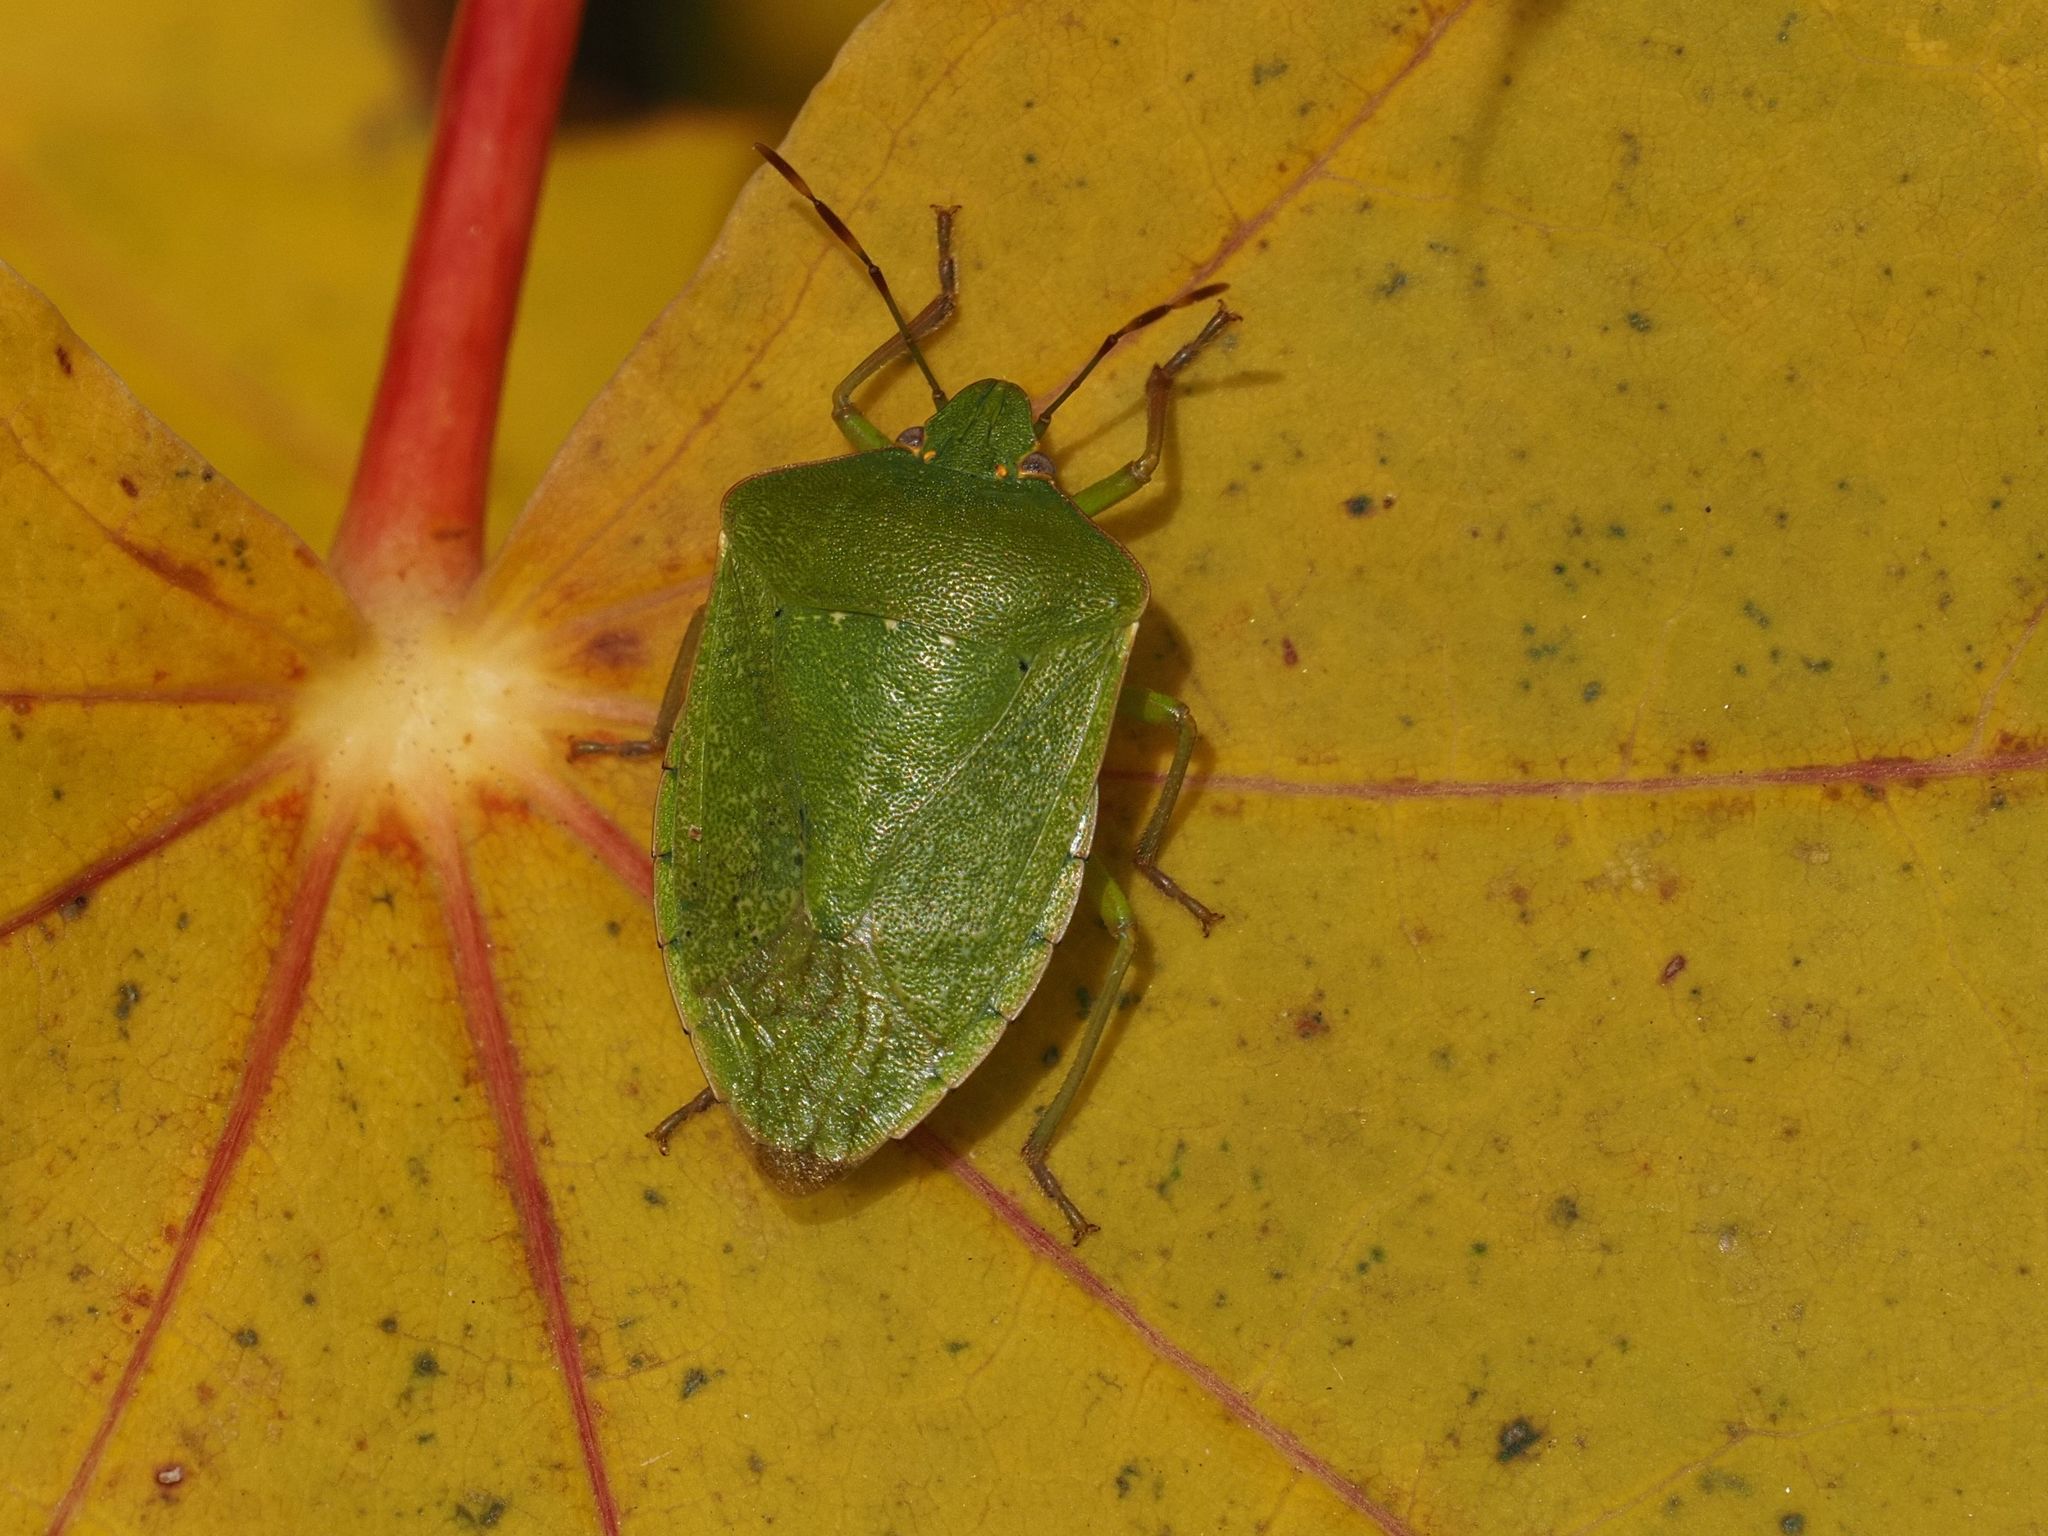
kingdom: Animalia
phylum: Arthropoda
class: Insecta
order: Hemiptera
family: Pentatomidae
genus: Nezara
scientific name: Nezara viridula
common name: Southern green stink bug
